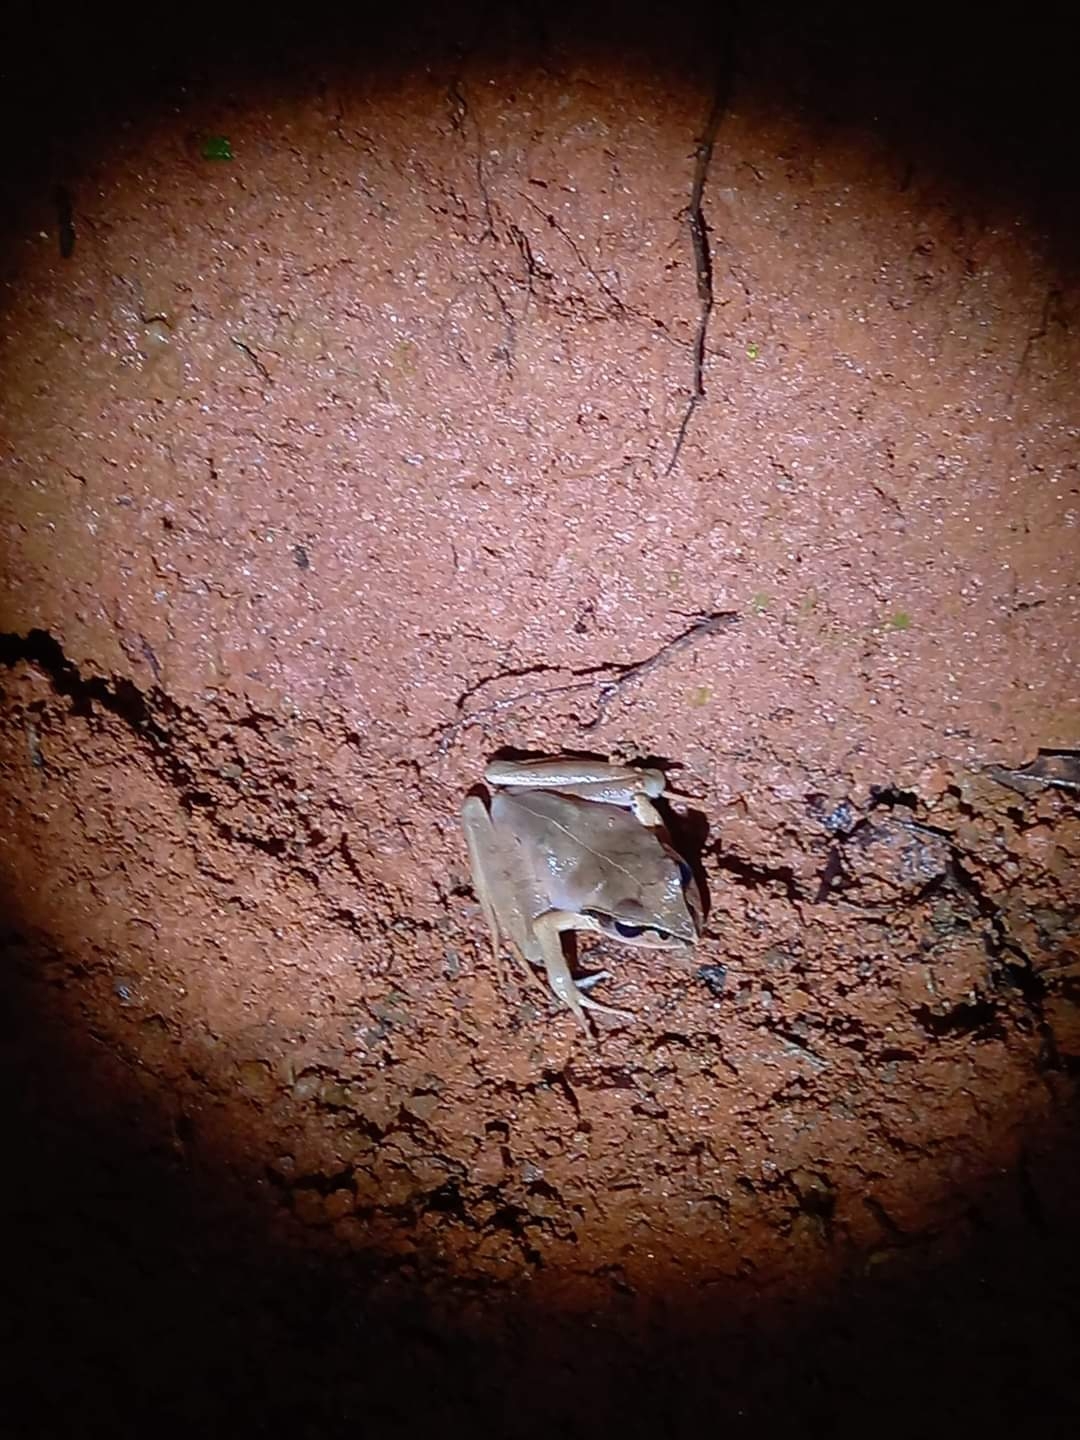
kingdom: Animalia
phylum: Chordata
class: Amphibia
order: Anura
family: Mantellidae
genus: Aglyptodactylus
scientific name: Aglyptodactylus madagascariensis
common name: Madagascar jumping frog
